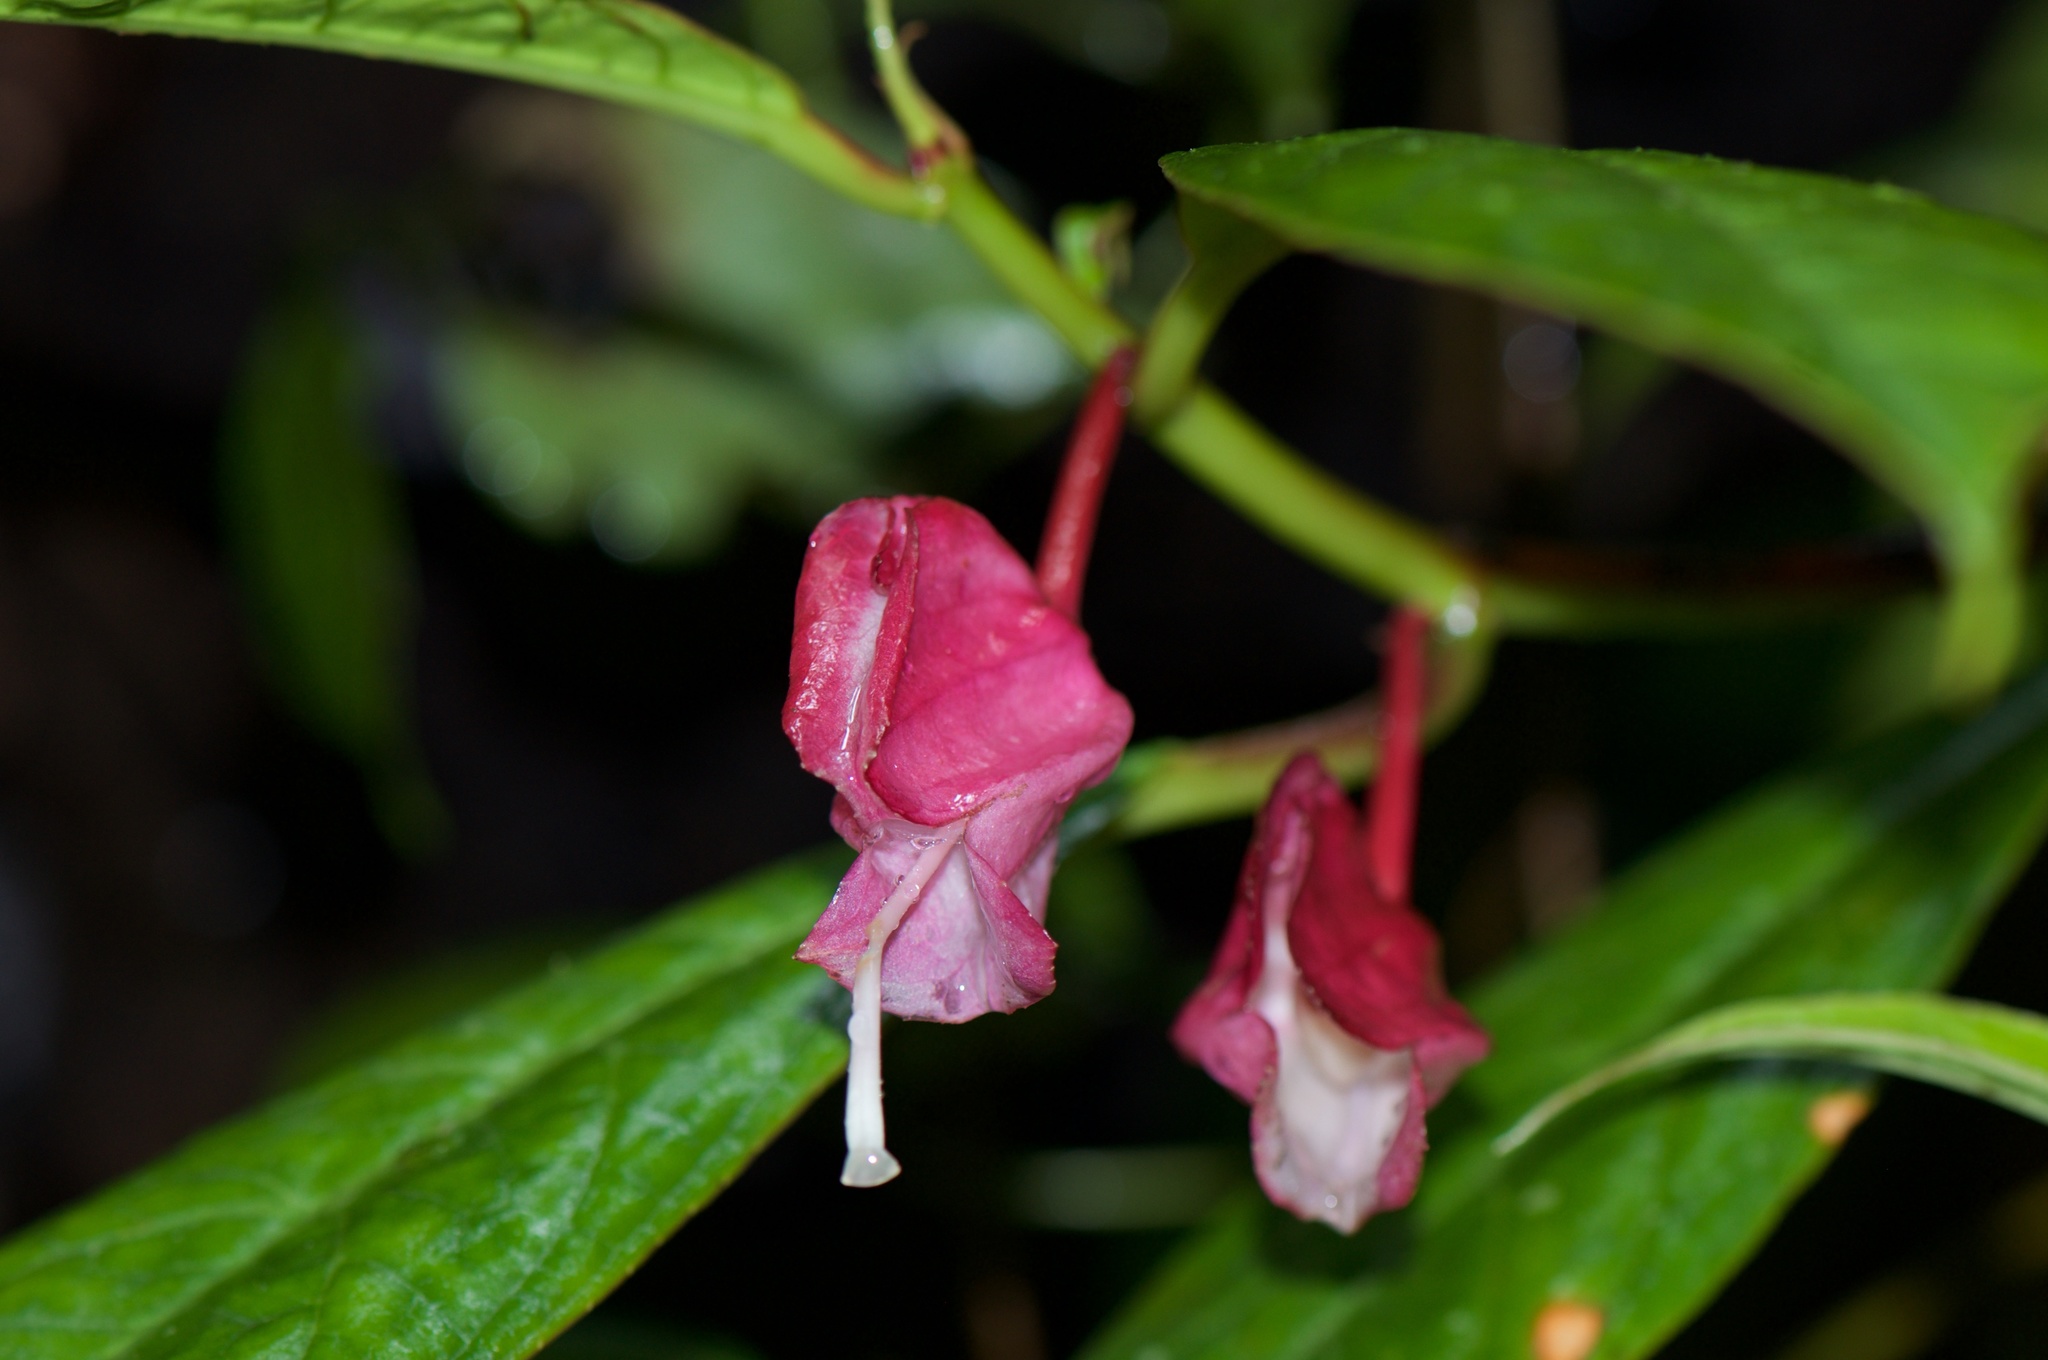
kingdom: Plantae
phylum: Tracheophyta
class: Magnoliopsida
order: Lamiales
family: Gesneriaceae
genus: Drymonia
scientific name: Drymonia conchocalyx
